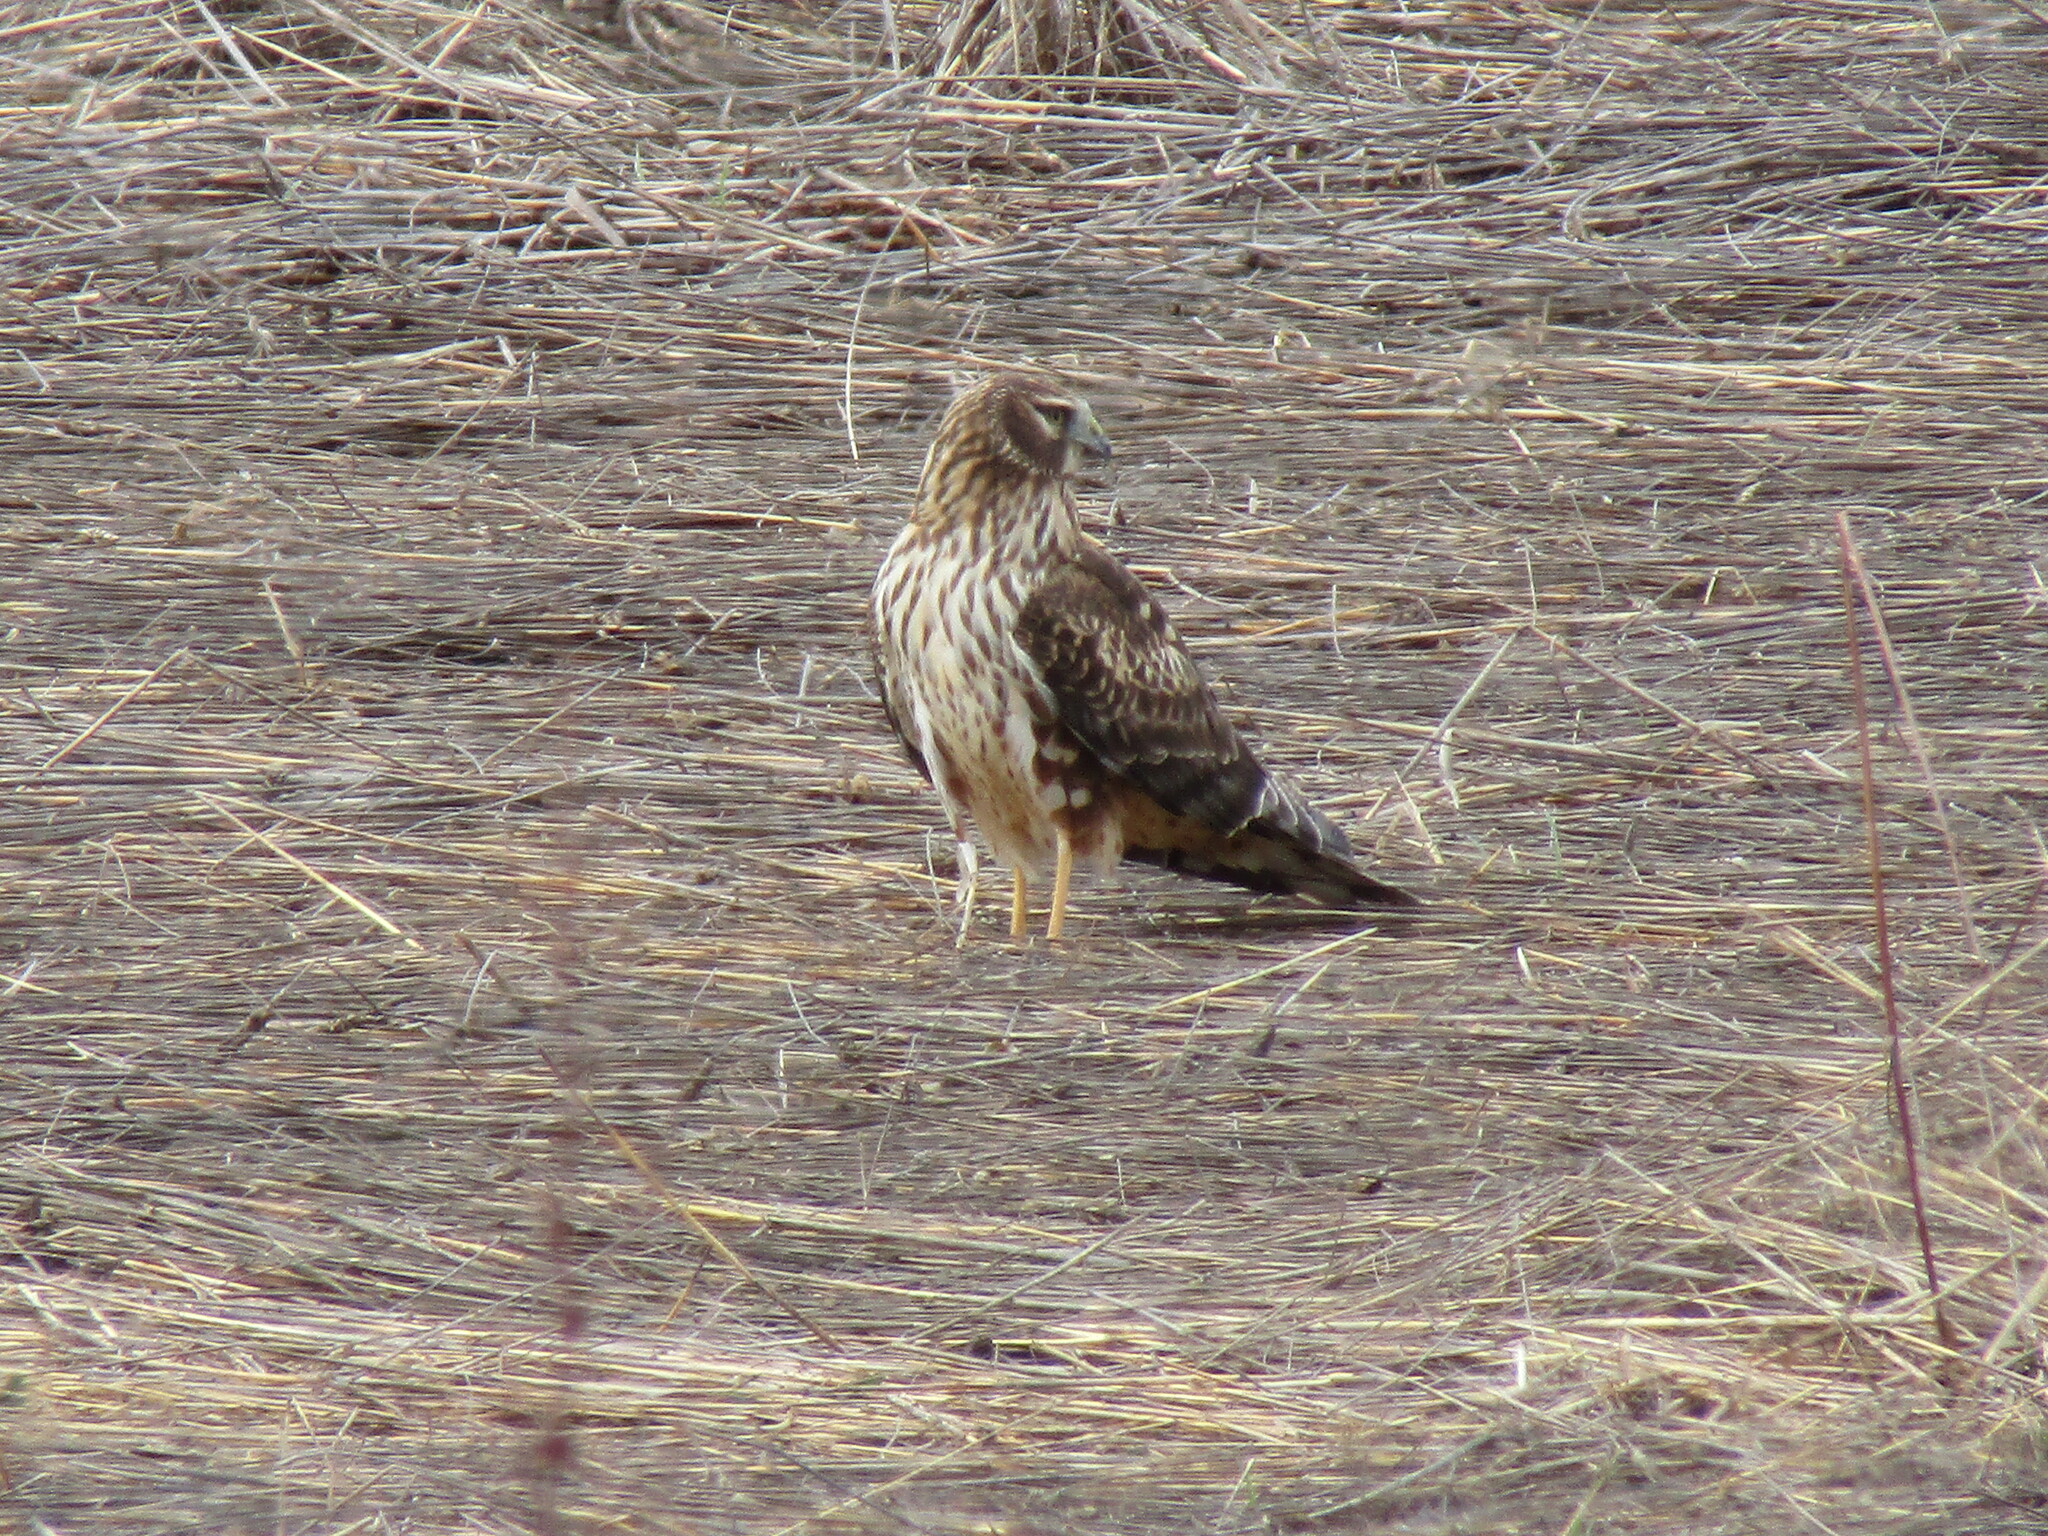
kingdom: Animalia
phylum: Chordata
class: Aves
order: Accipitriformes
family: Accipitridae
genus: Circus
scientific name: Circus cyaneus
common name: Hen harrier
